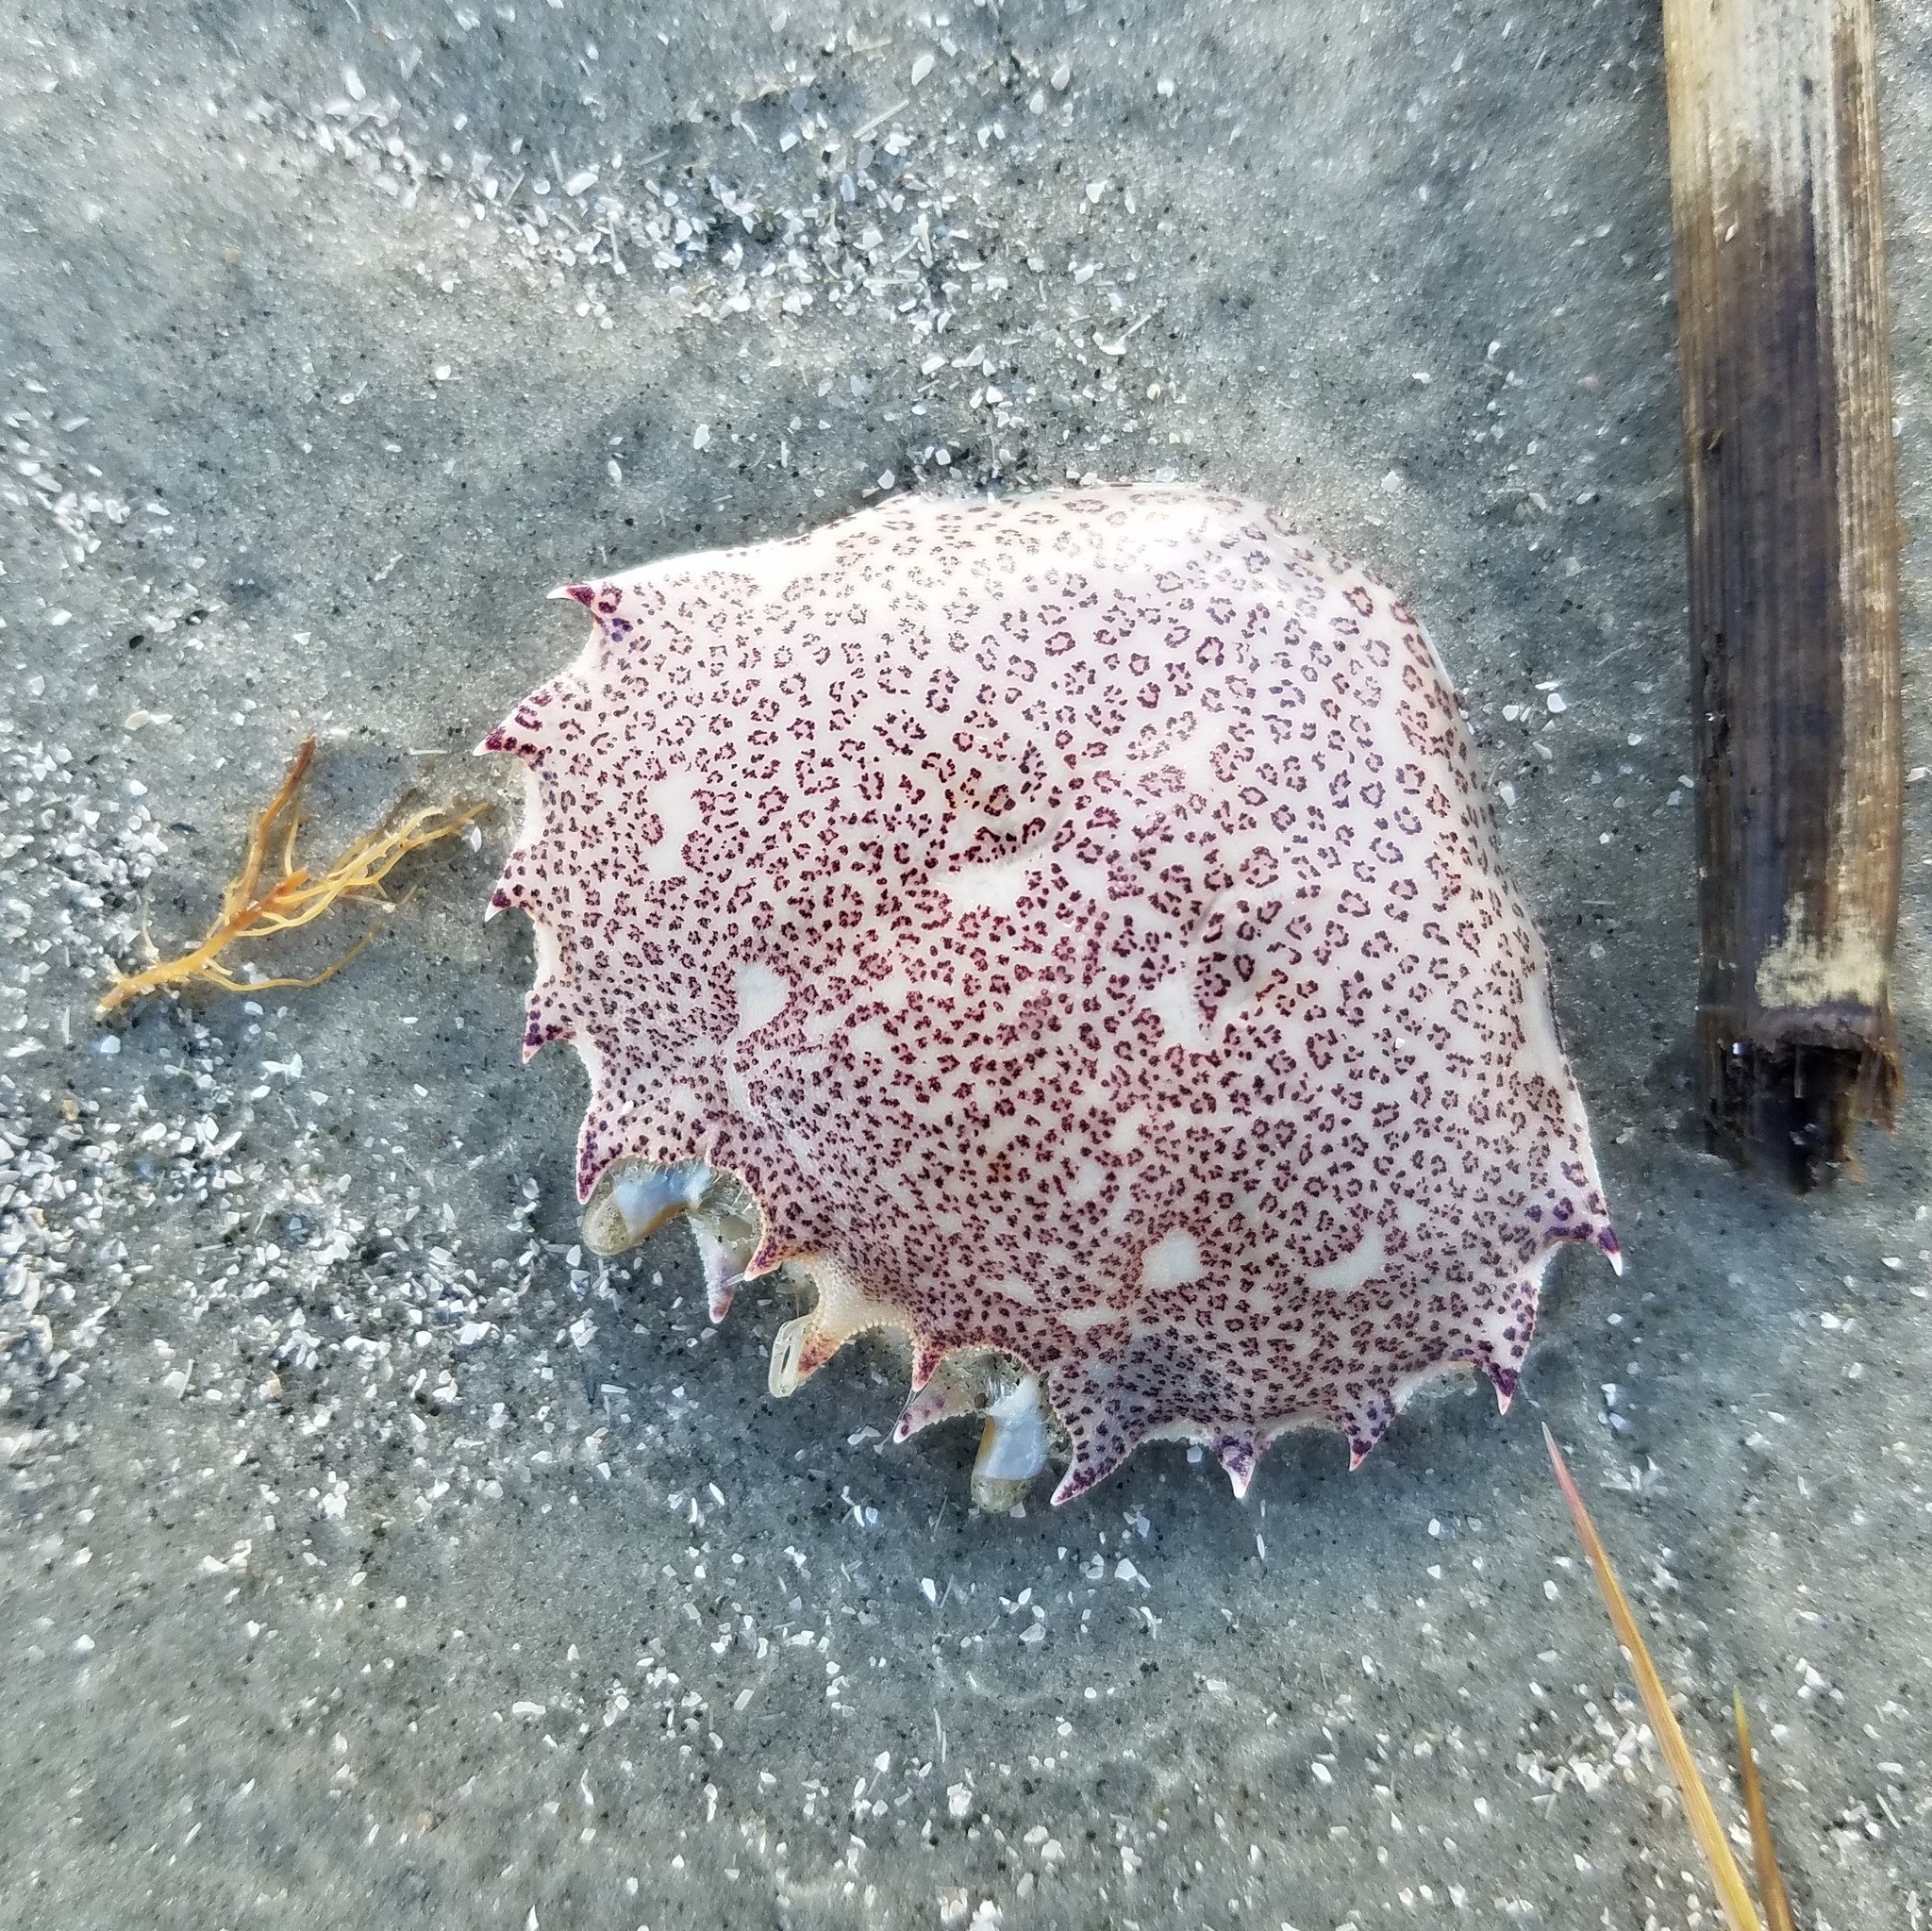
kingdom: Animalia
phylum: Arthropoda
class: Malacostraca
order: Decapoda
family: Ovalipidae
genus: Ovalipes
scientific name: Ovalipes ocellatus
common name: Lady crab
